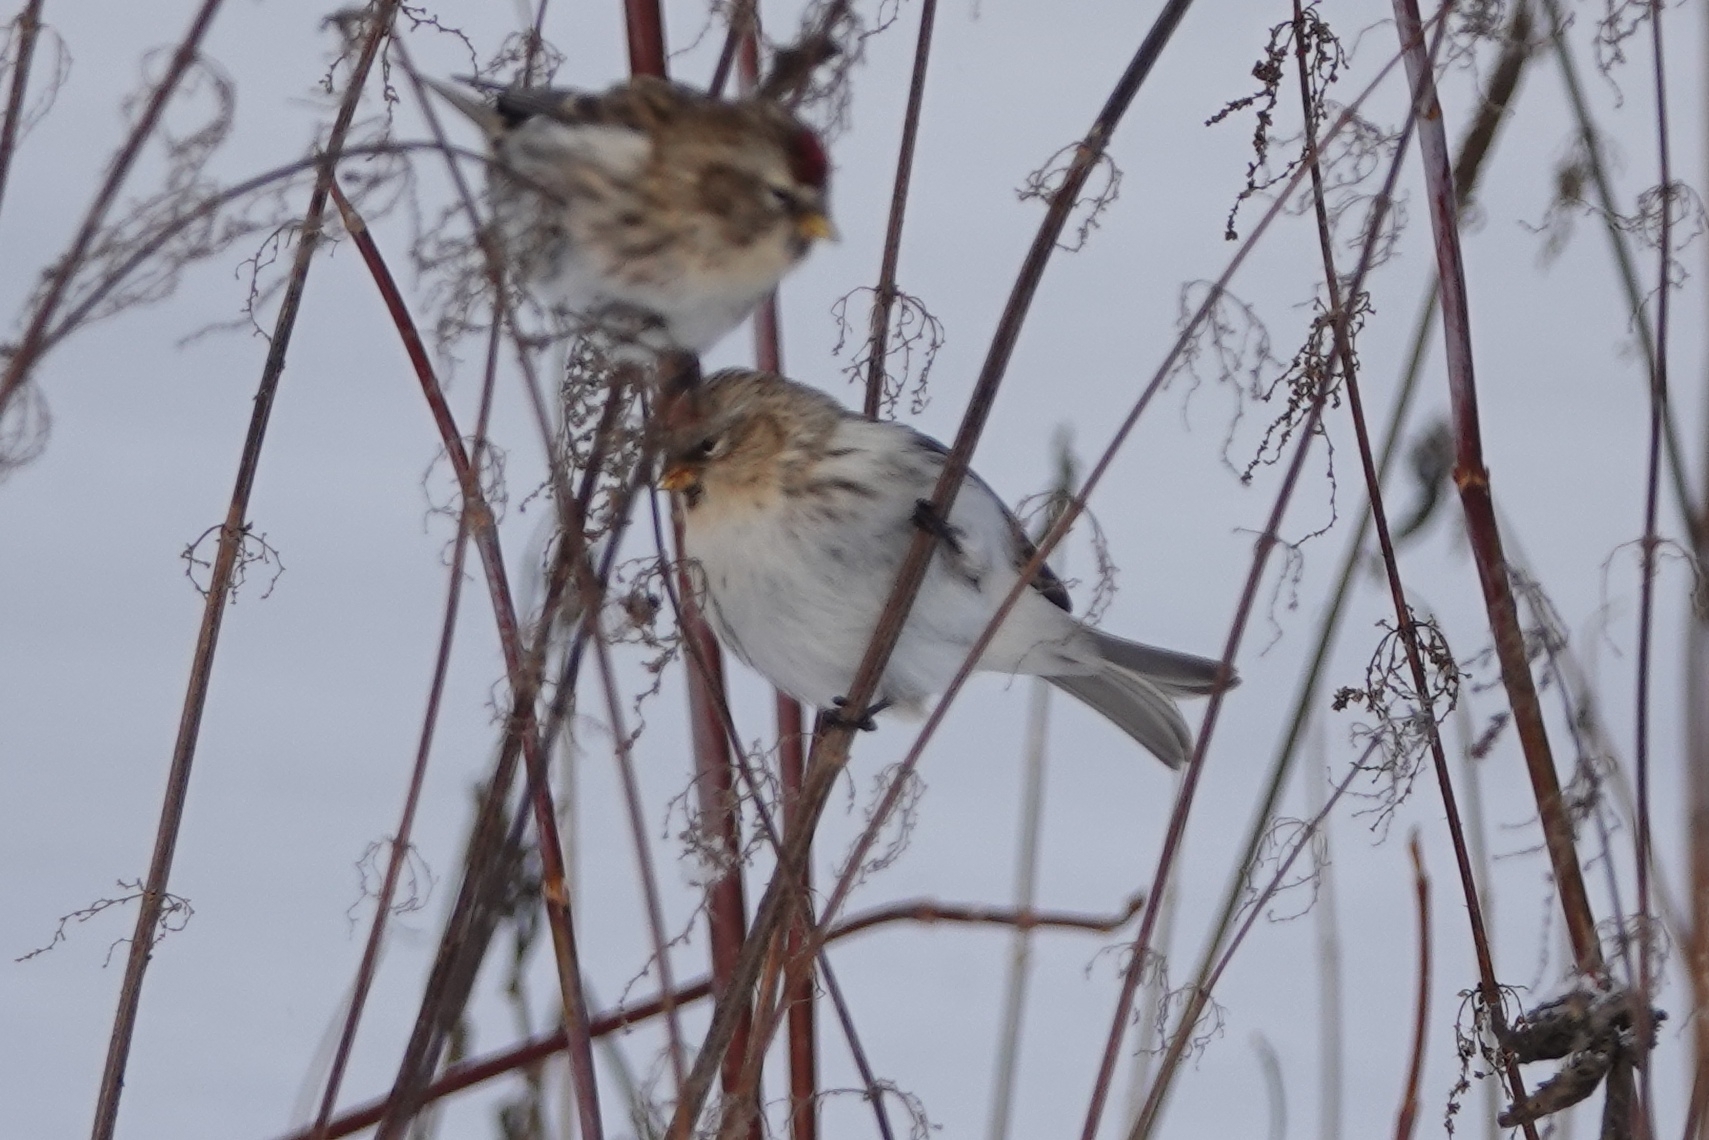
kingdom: Animalia
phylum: Chordata
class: Aves
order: Passeriformes
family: Fringillidae
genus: Acanthis
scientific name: Acanthis hornemanni
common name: Arctic redpoll
